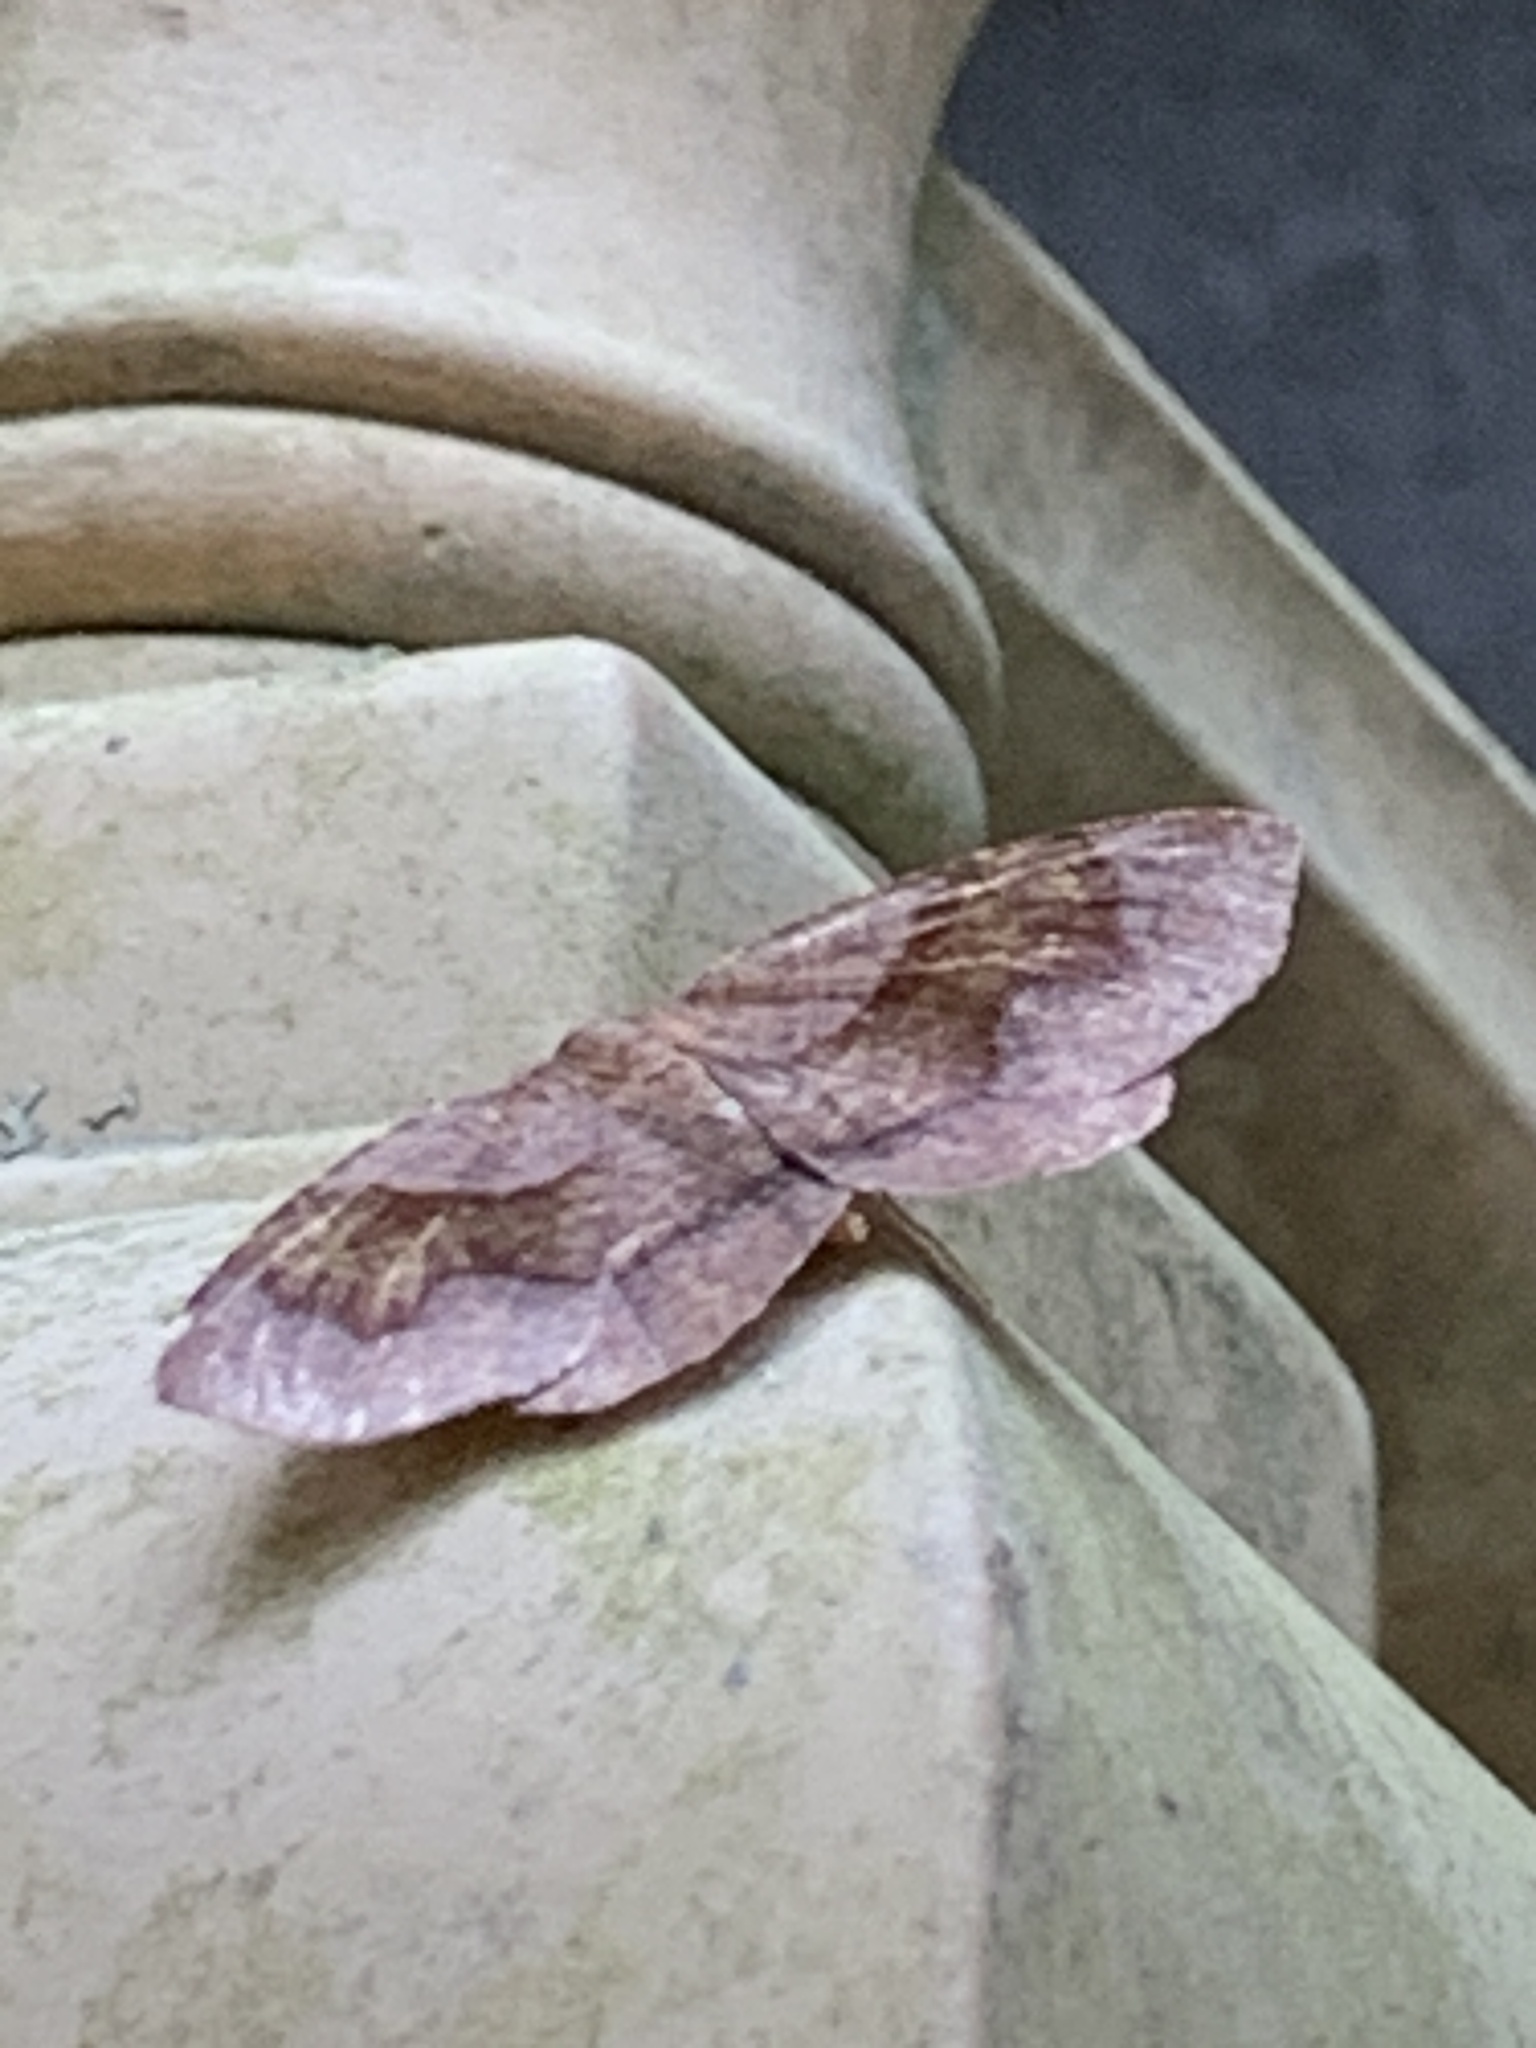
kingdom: Animalia
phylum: Arthropoda
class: Insecta
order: Lepidoptera
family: Geometridae
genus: Plagodis
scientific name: Plagodis pulveraria
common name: Barred umber
